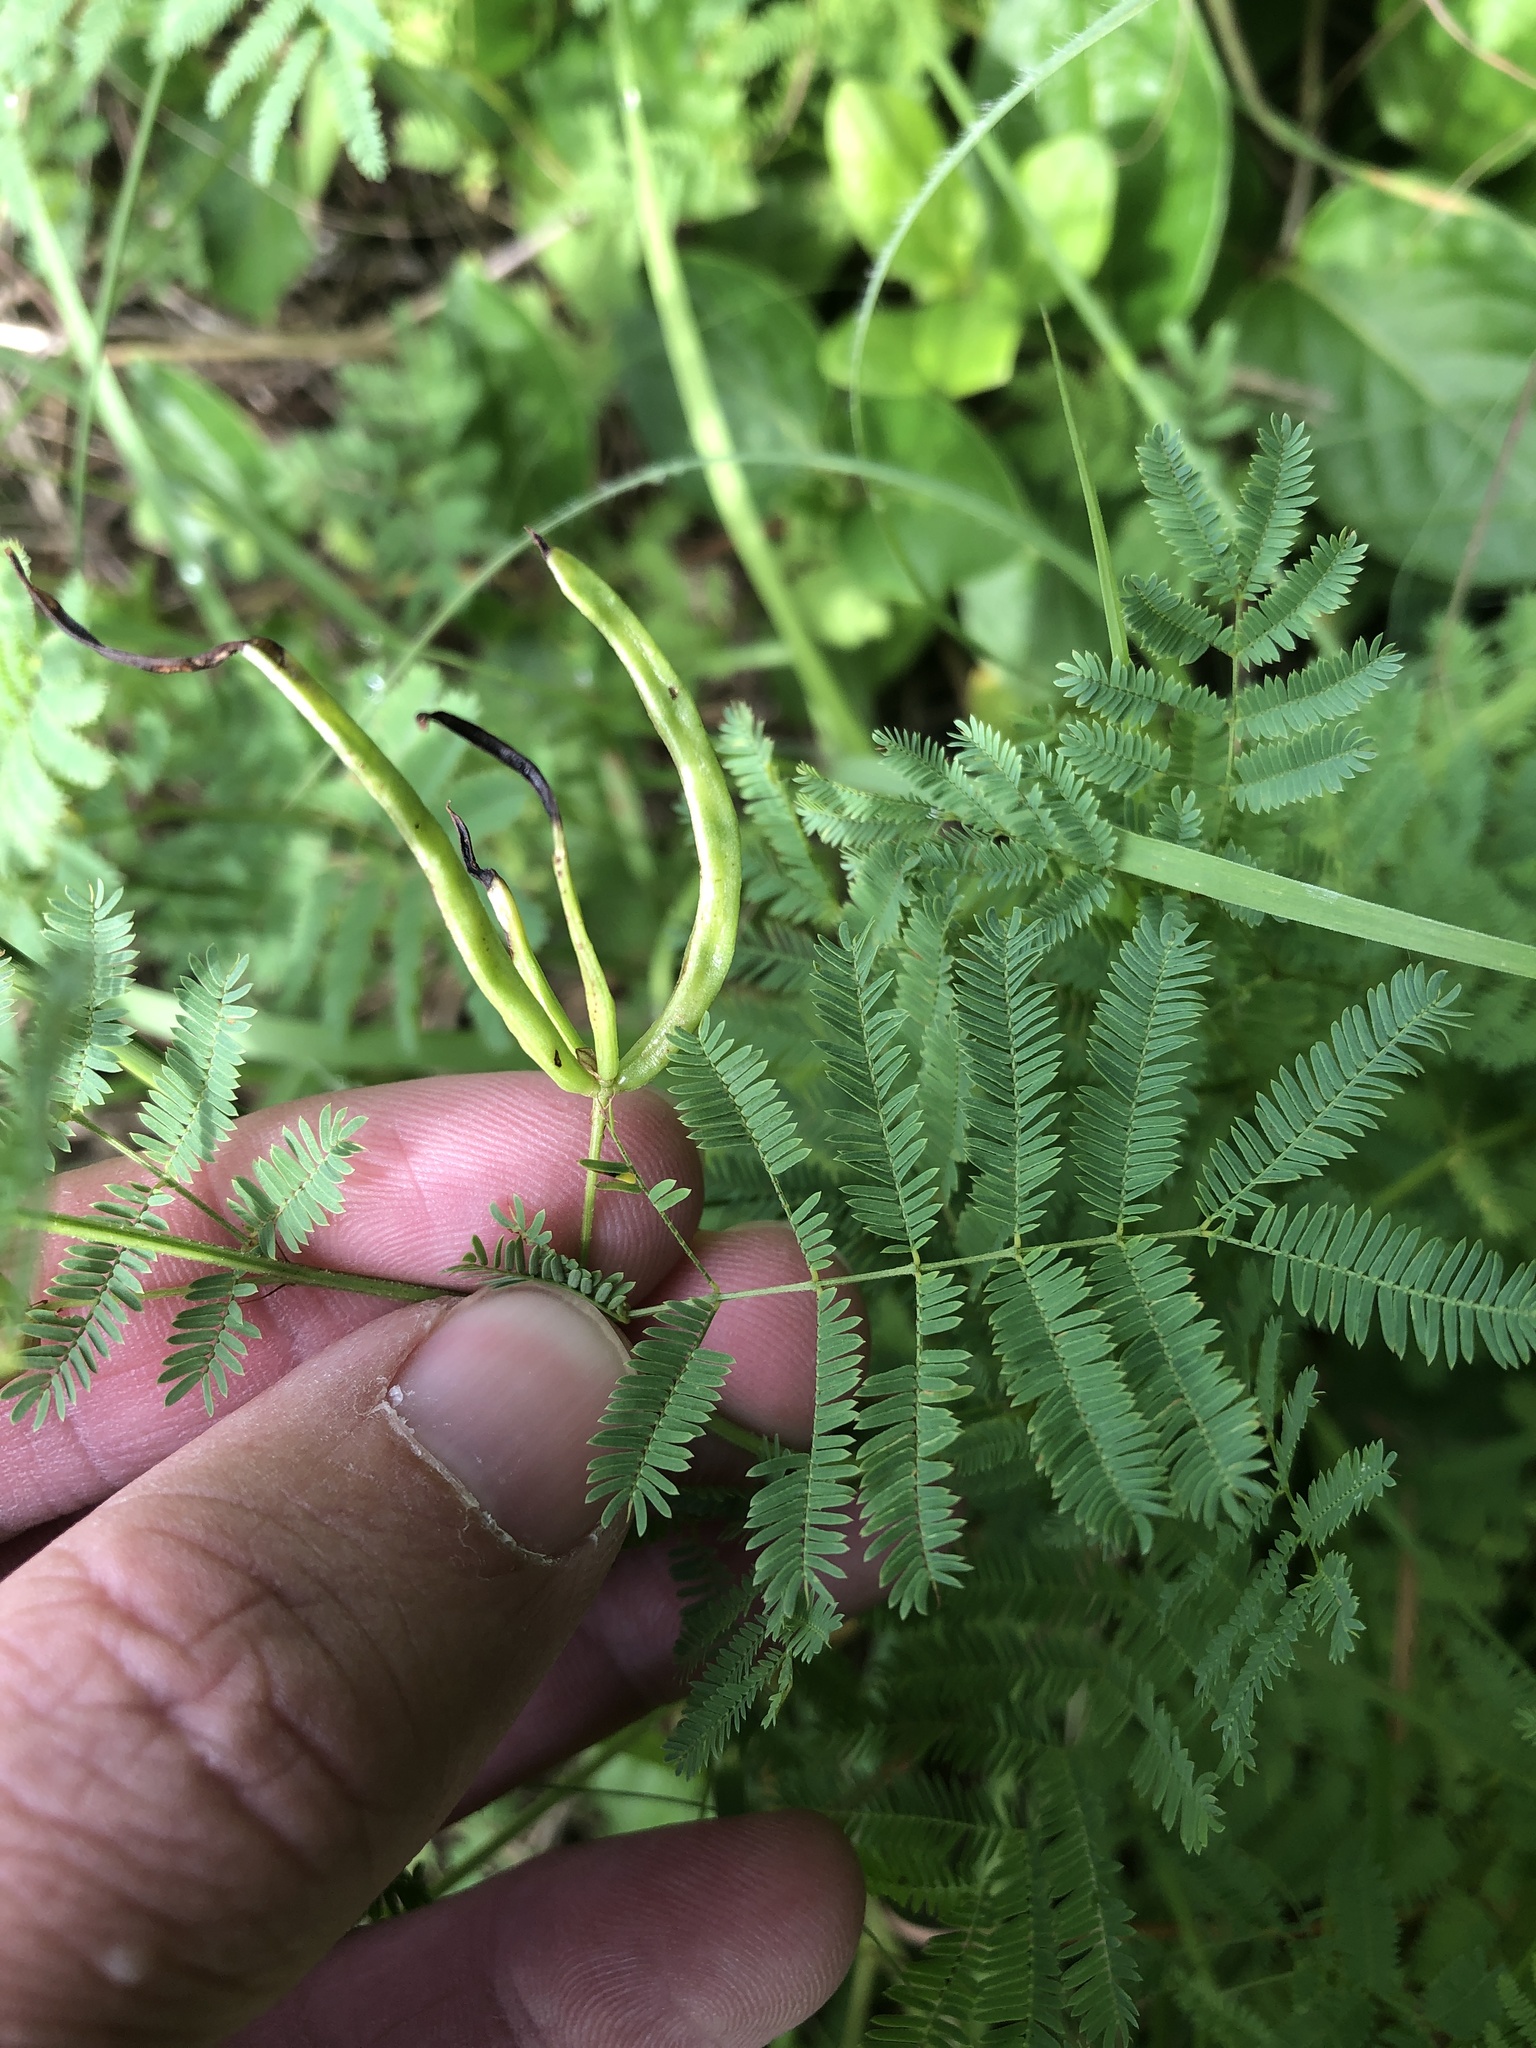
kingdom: Plantae
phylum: Tracheophyta
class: Magnoliopsida
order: Fabales
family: Fabaceae
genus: Desmanthus
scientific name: Desmanthus leptolobus
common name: Prairie-mimosa
